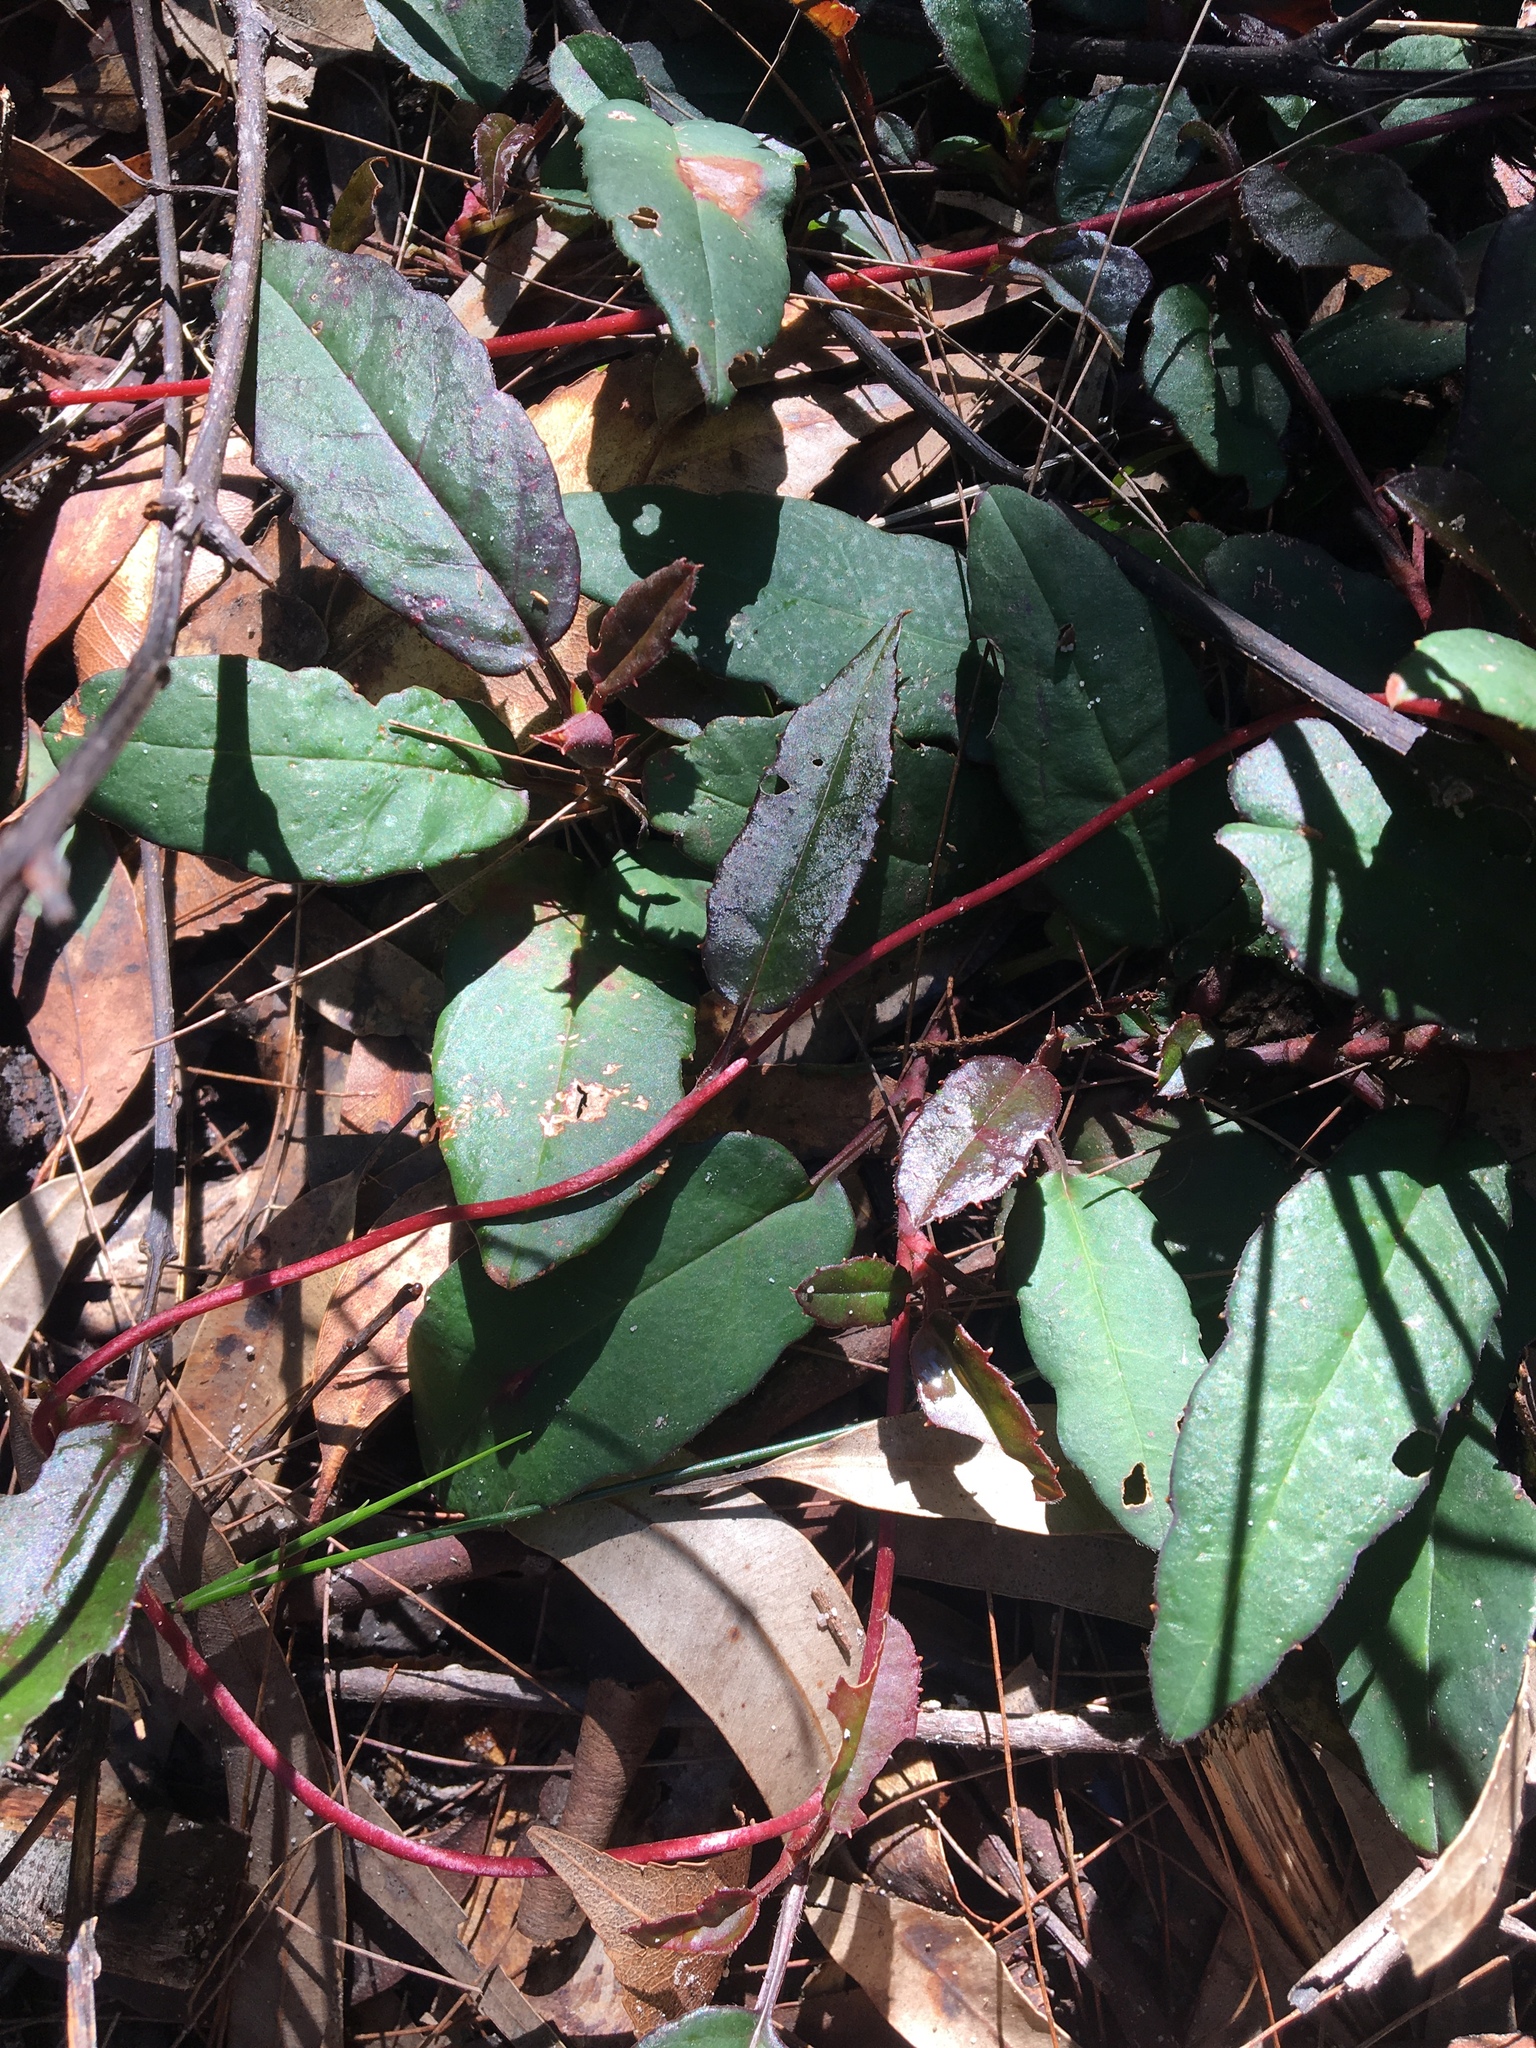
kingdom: Plantae
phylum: Tracheophyta
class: Magnoliopsida
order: Dilleniales
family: Dilleniaceae
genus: Hibbertia
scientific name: Hibbertia dentata
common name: Trailing guinea-flower
